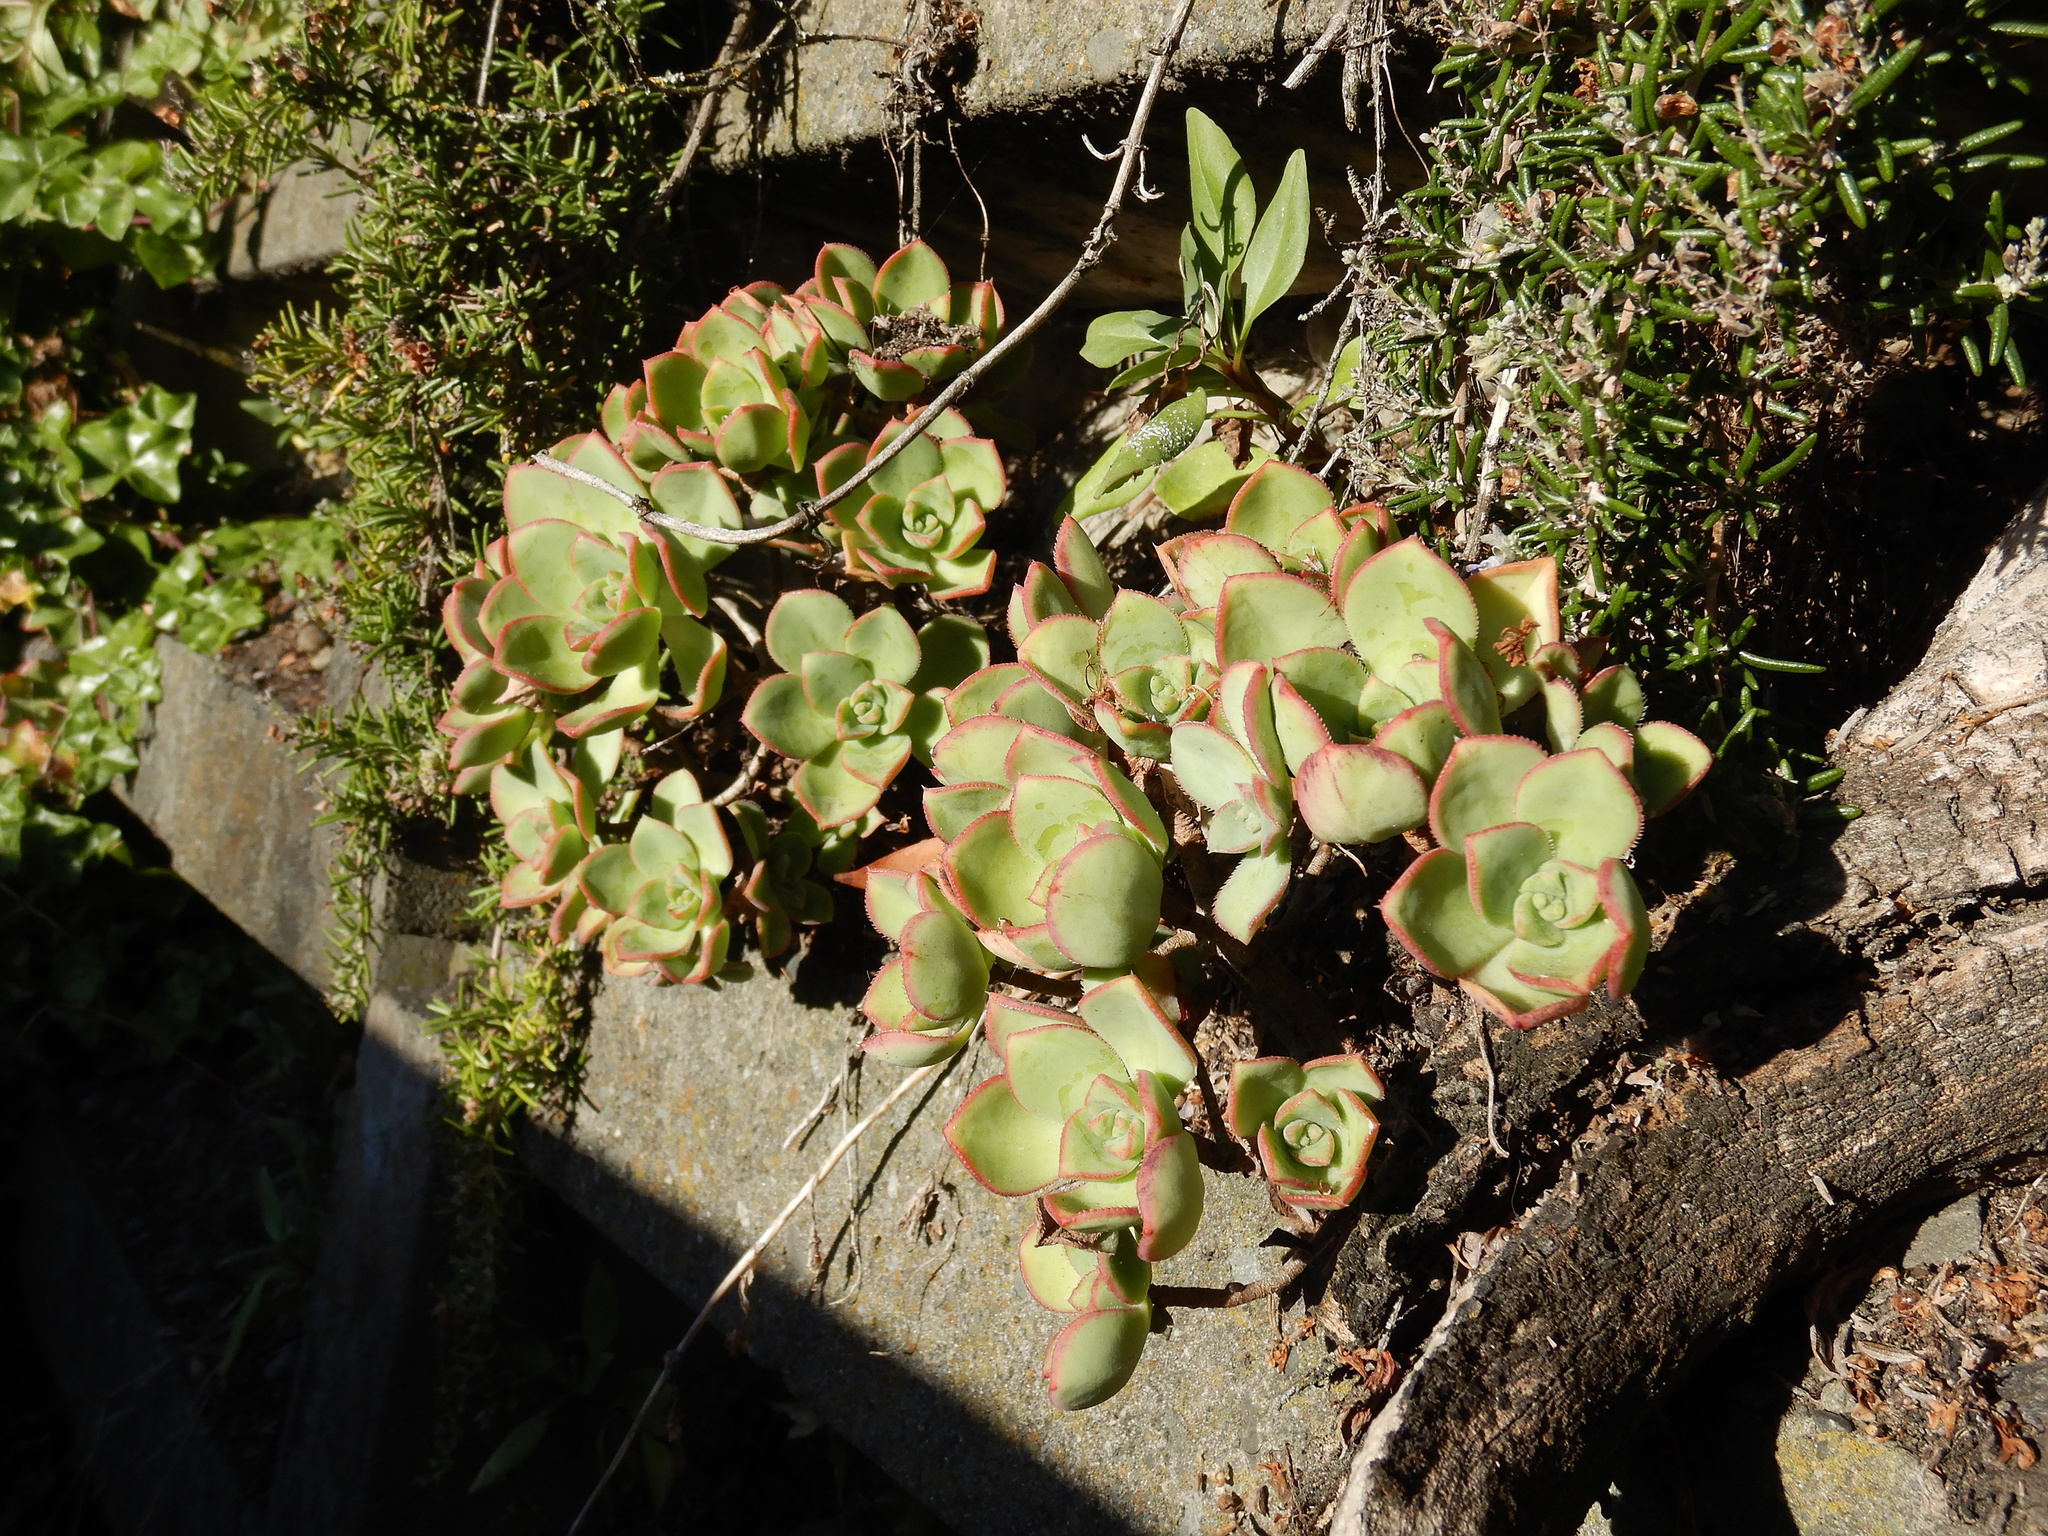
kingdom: Plantae
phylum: Tracheophyta
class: Magnoliopsida
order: Saxifragales
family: Crassulaceae
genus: Aeonium
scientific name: Aeonium haworthii
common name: Haworth's aeonium
